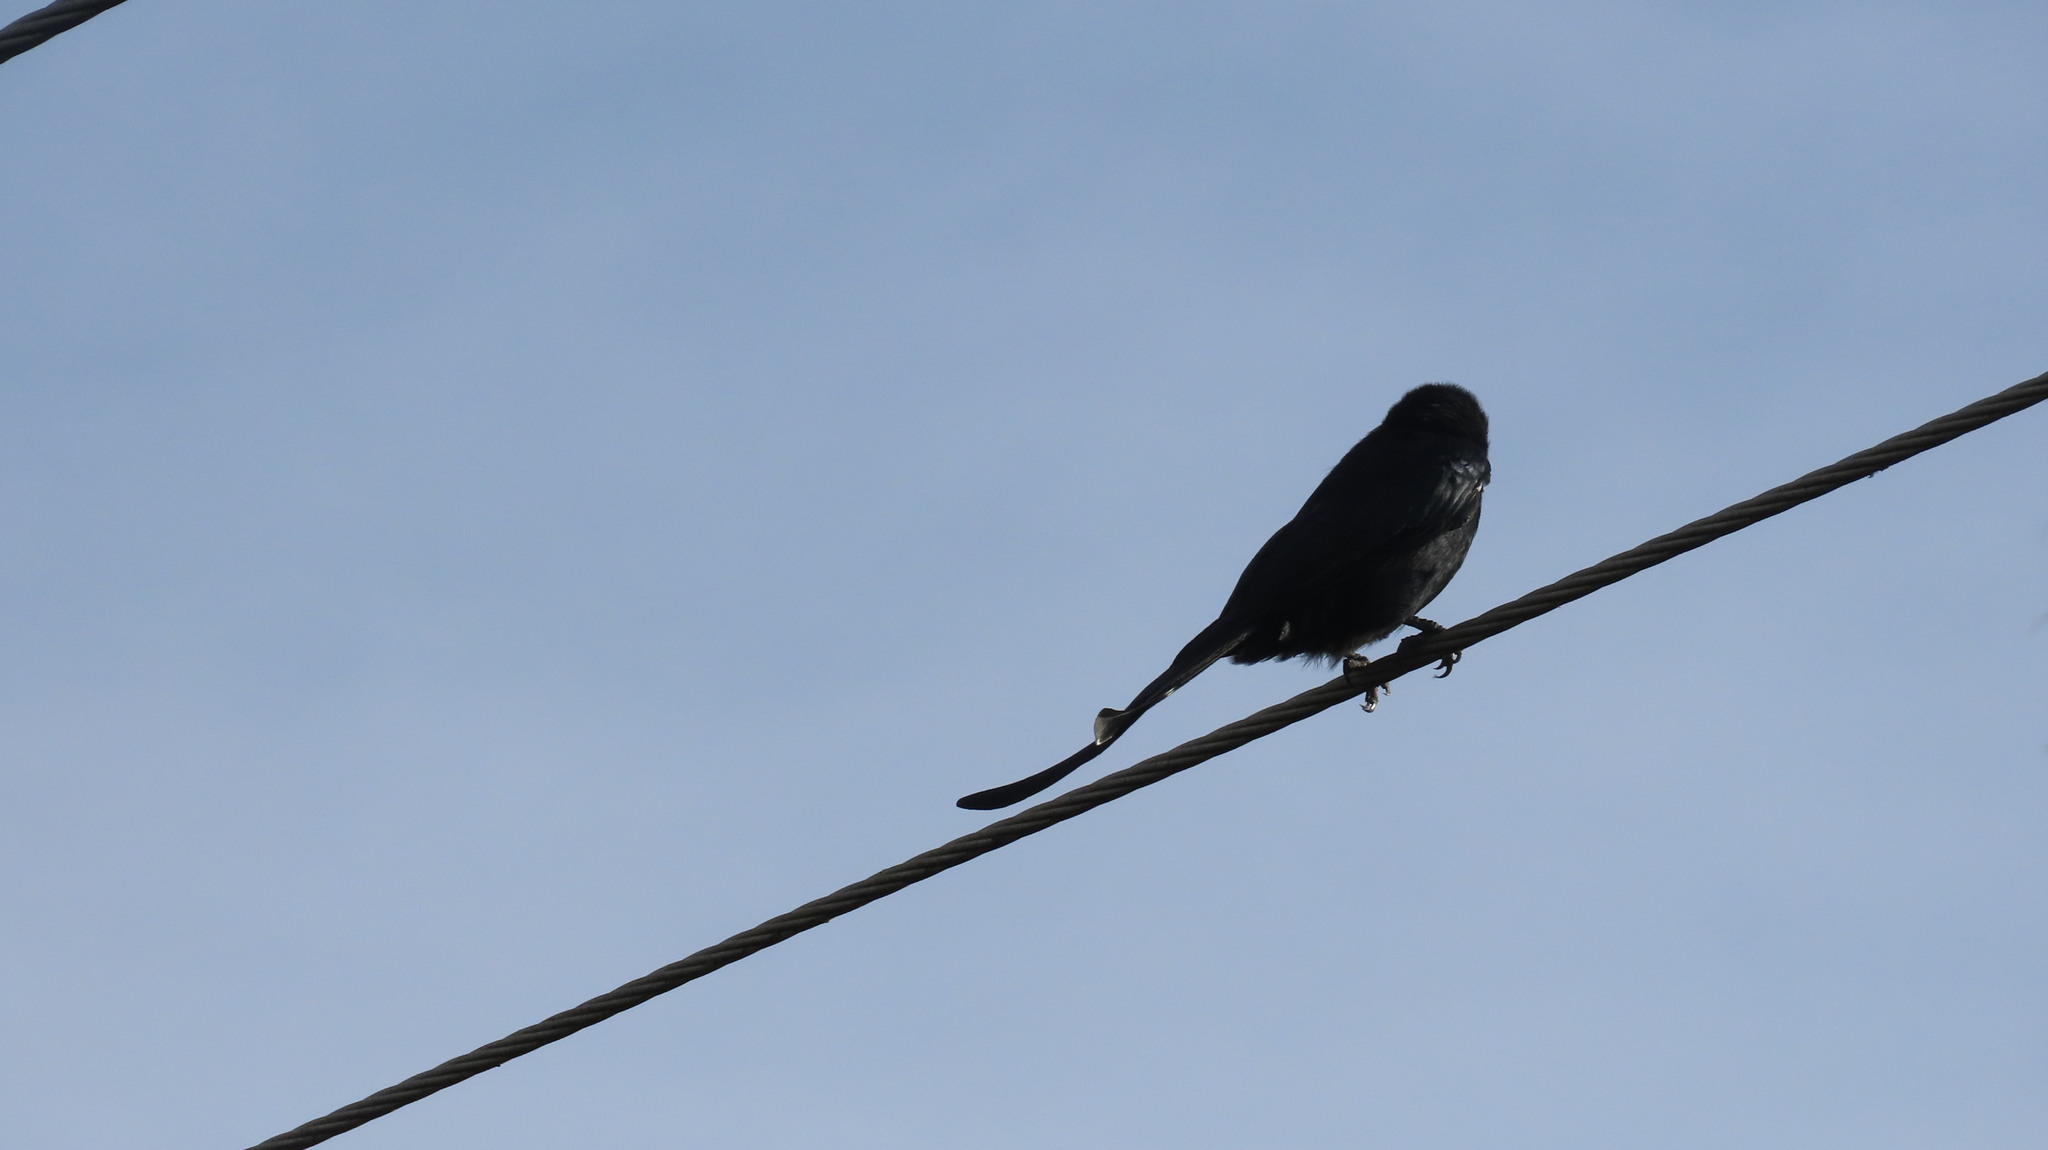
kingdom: Animalia
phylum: Chordata
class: Aves
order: Passeriformes
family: Dicruridae
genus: Dicrurus
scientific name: Dicrurus macrocercus
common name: Black drongo
